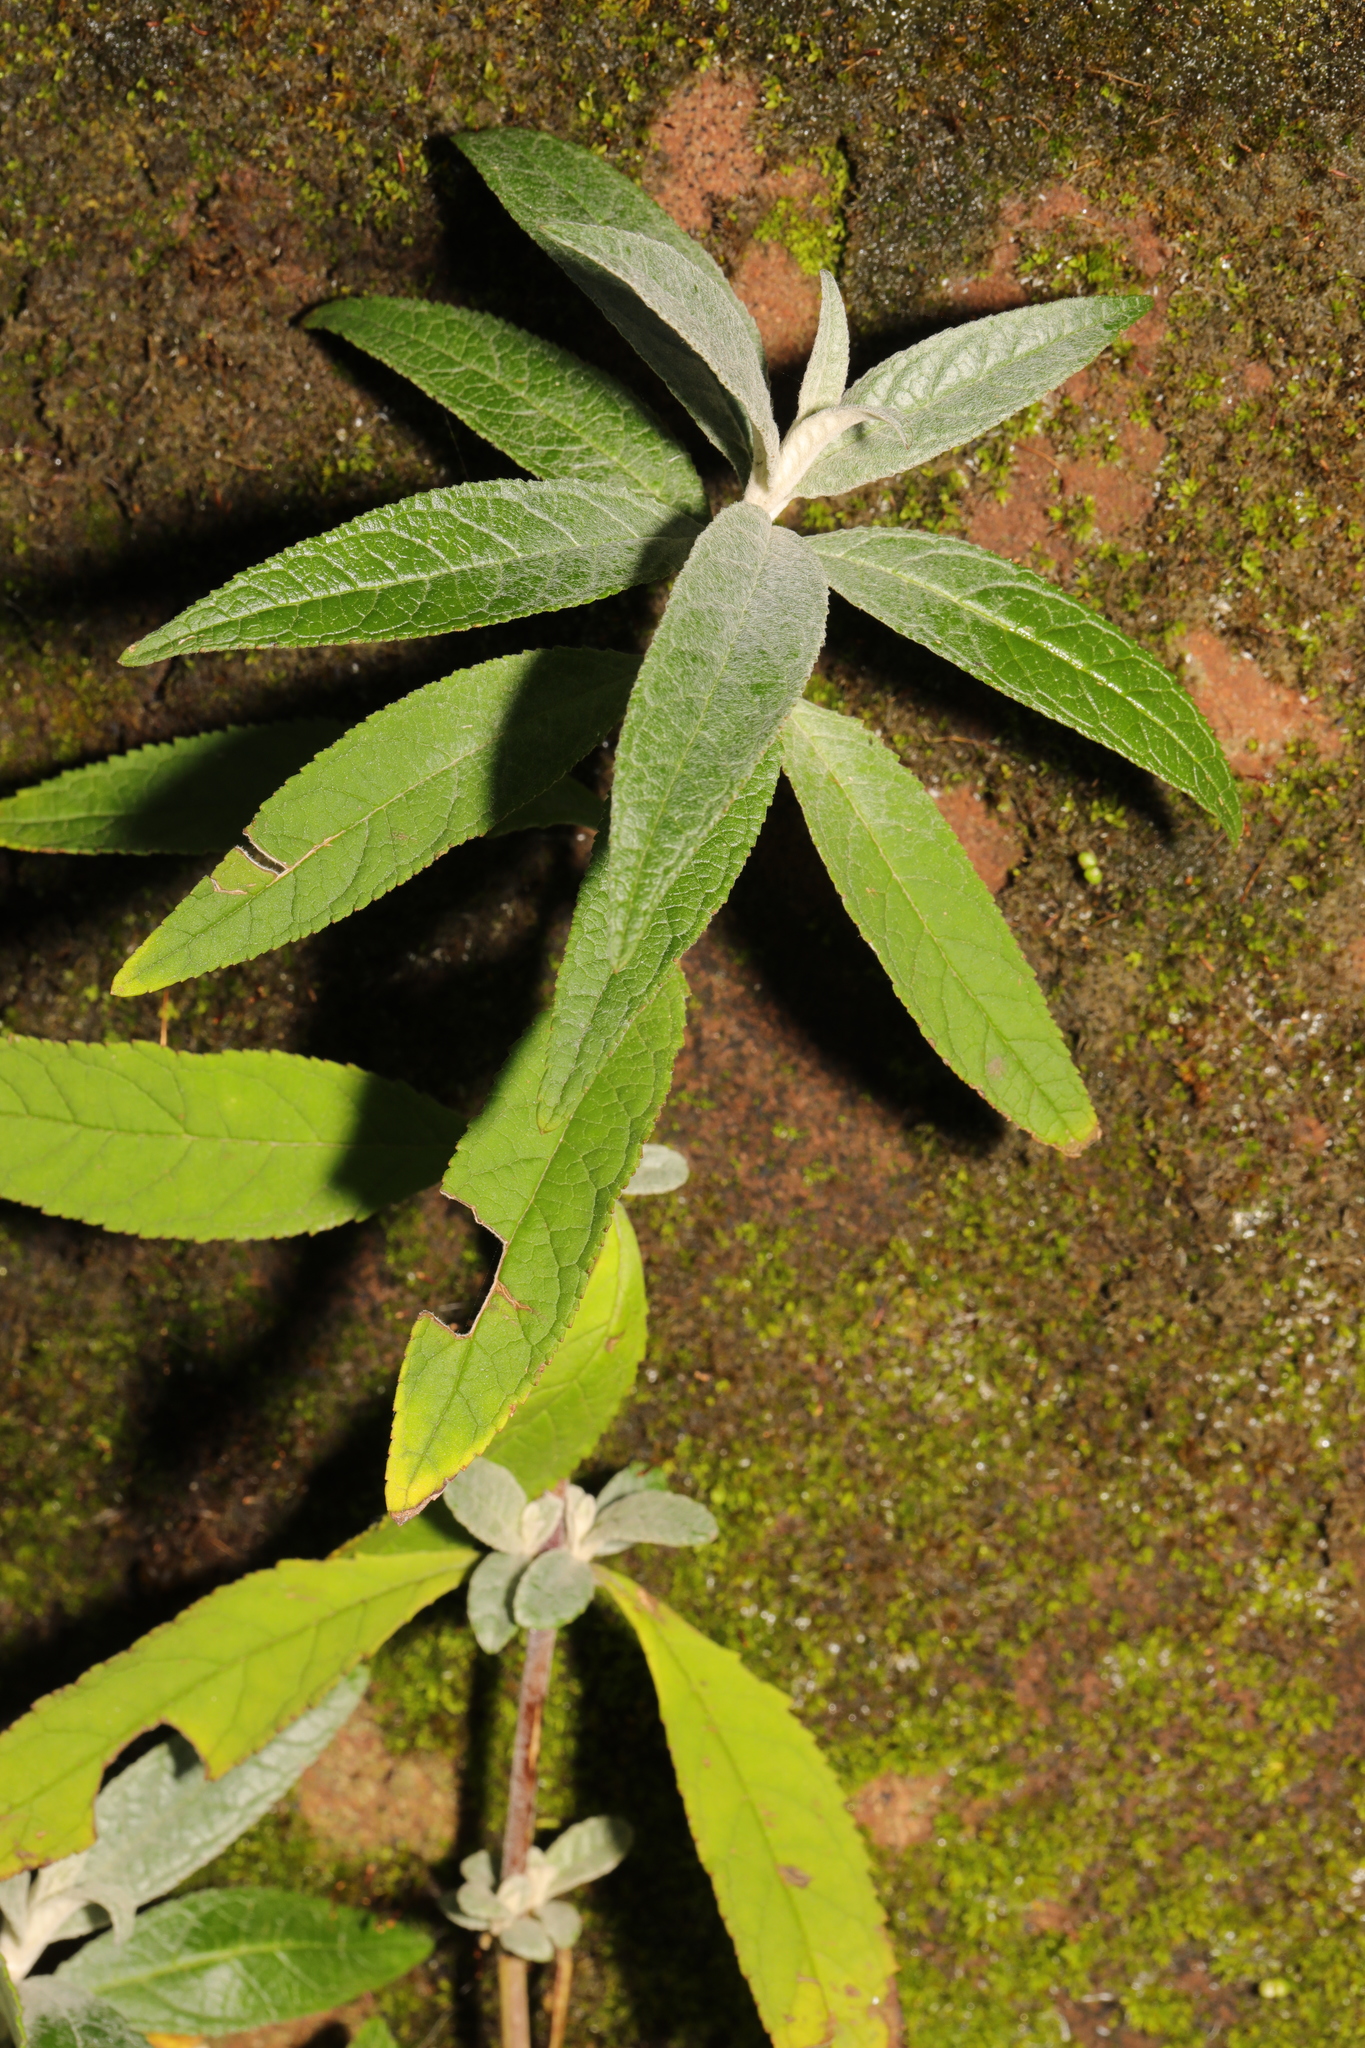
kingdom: Plantae
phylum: Tracheophyta
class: Magnoliopsida
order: Lamiales
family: Scrophulariaceae
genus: Buddleja
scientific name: Buddleja davidii
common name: Butterfly-bush
